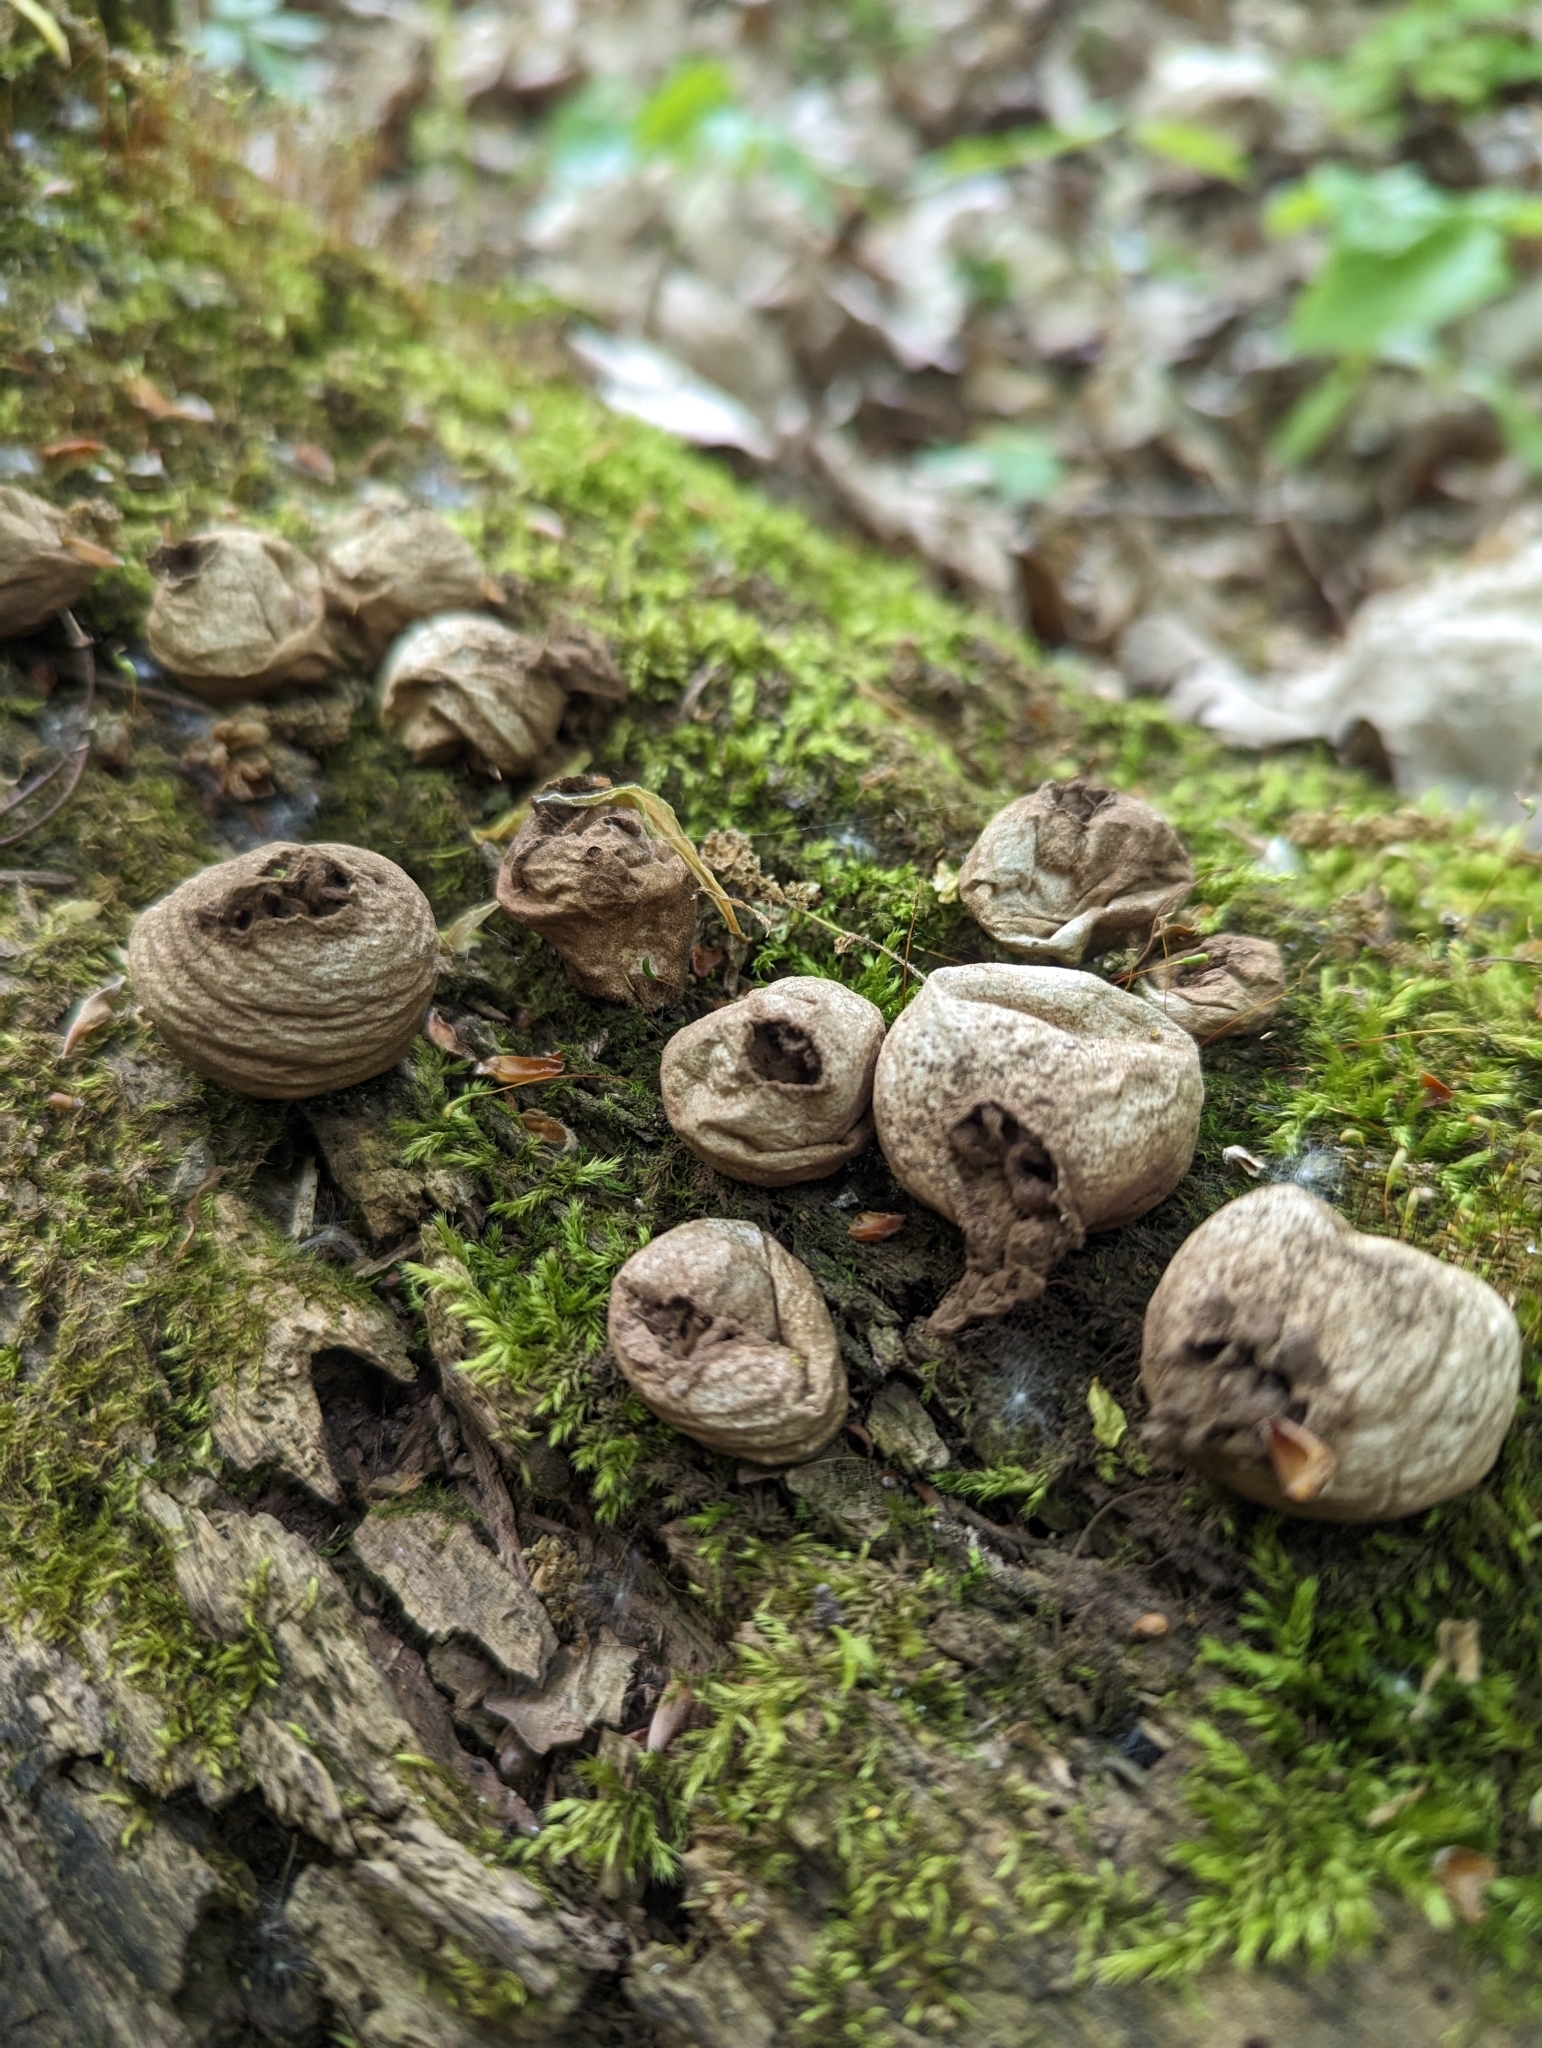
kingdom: Fungi
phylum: Basidiomycota
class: Agaricomycetes
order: Agaricales
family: Lycoperdaceae
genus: Apioperdon
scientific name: Apioperdon pyriforme
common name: Pear-shaped puffball
